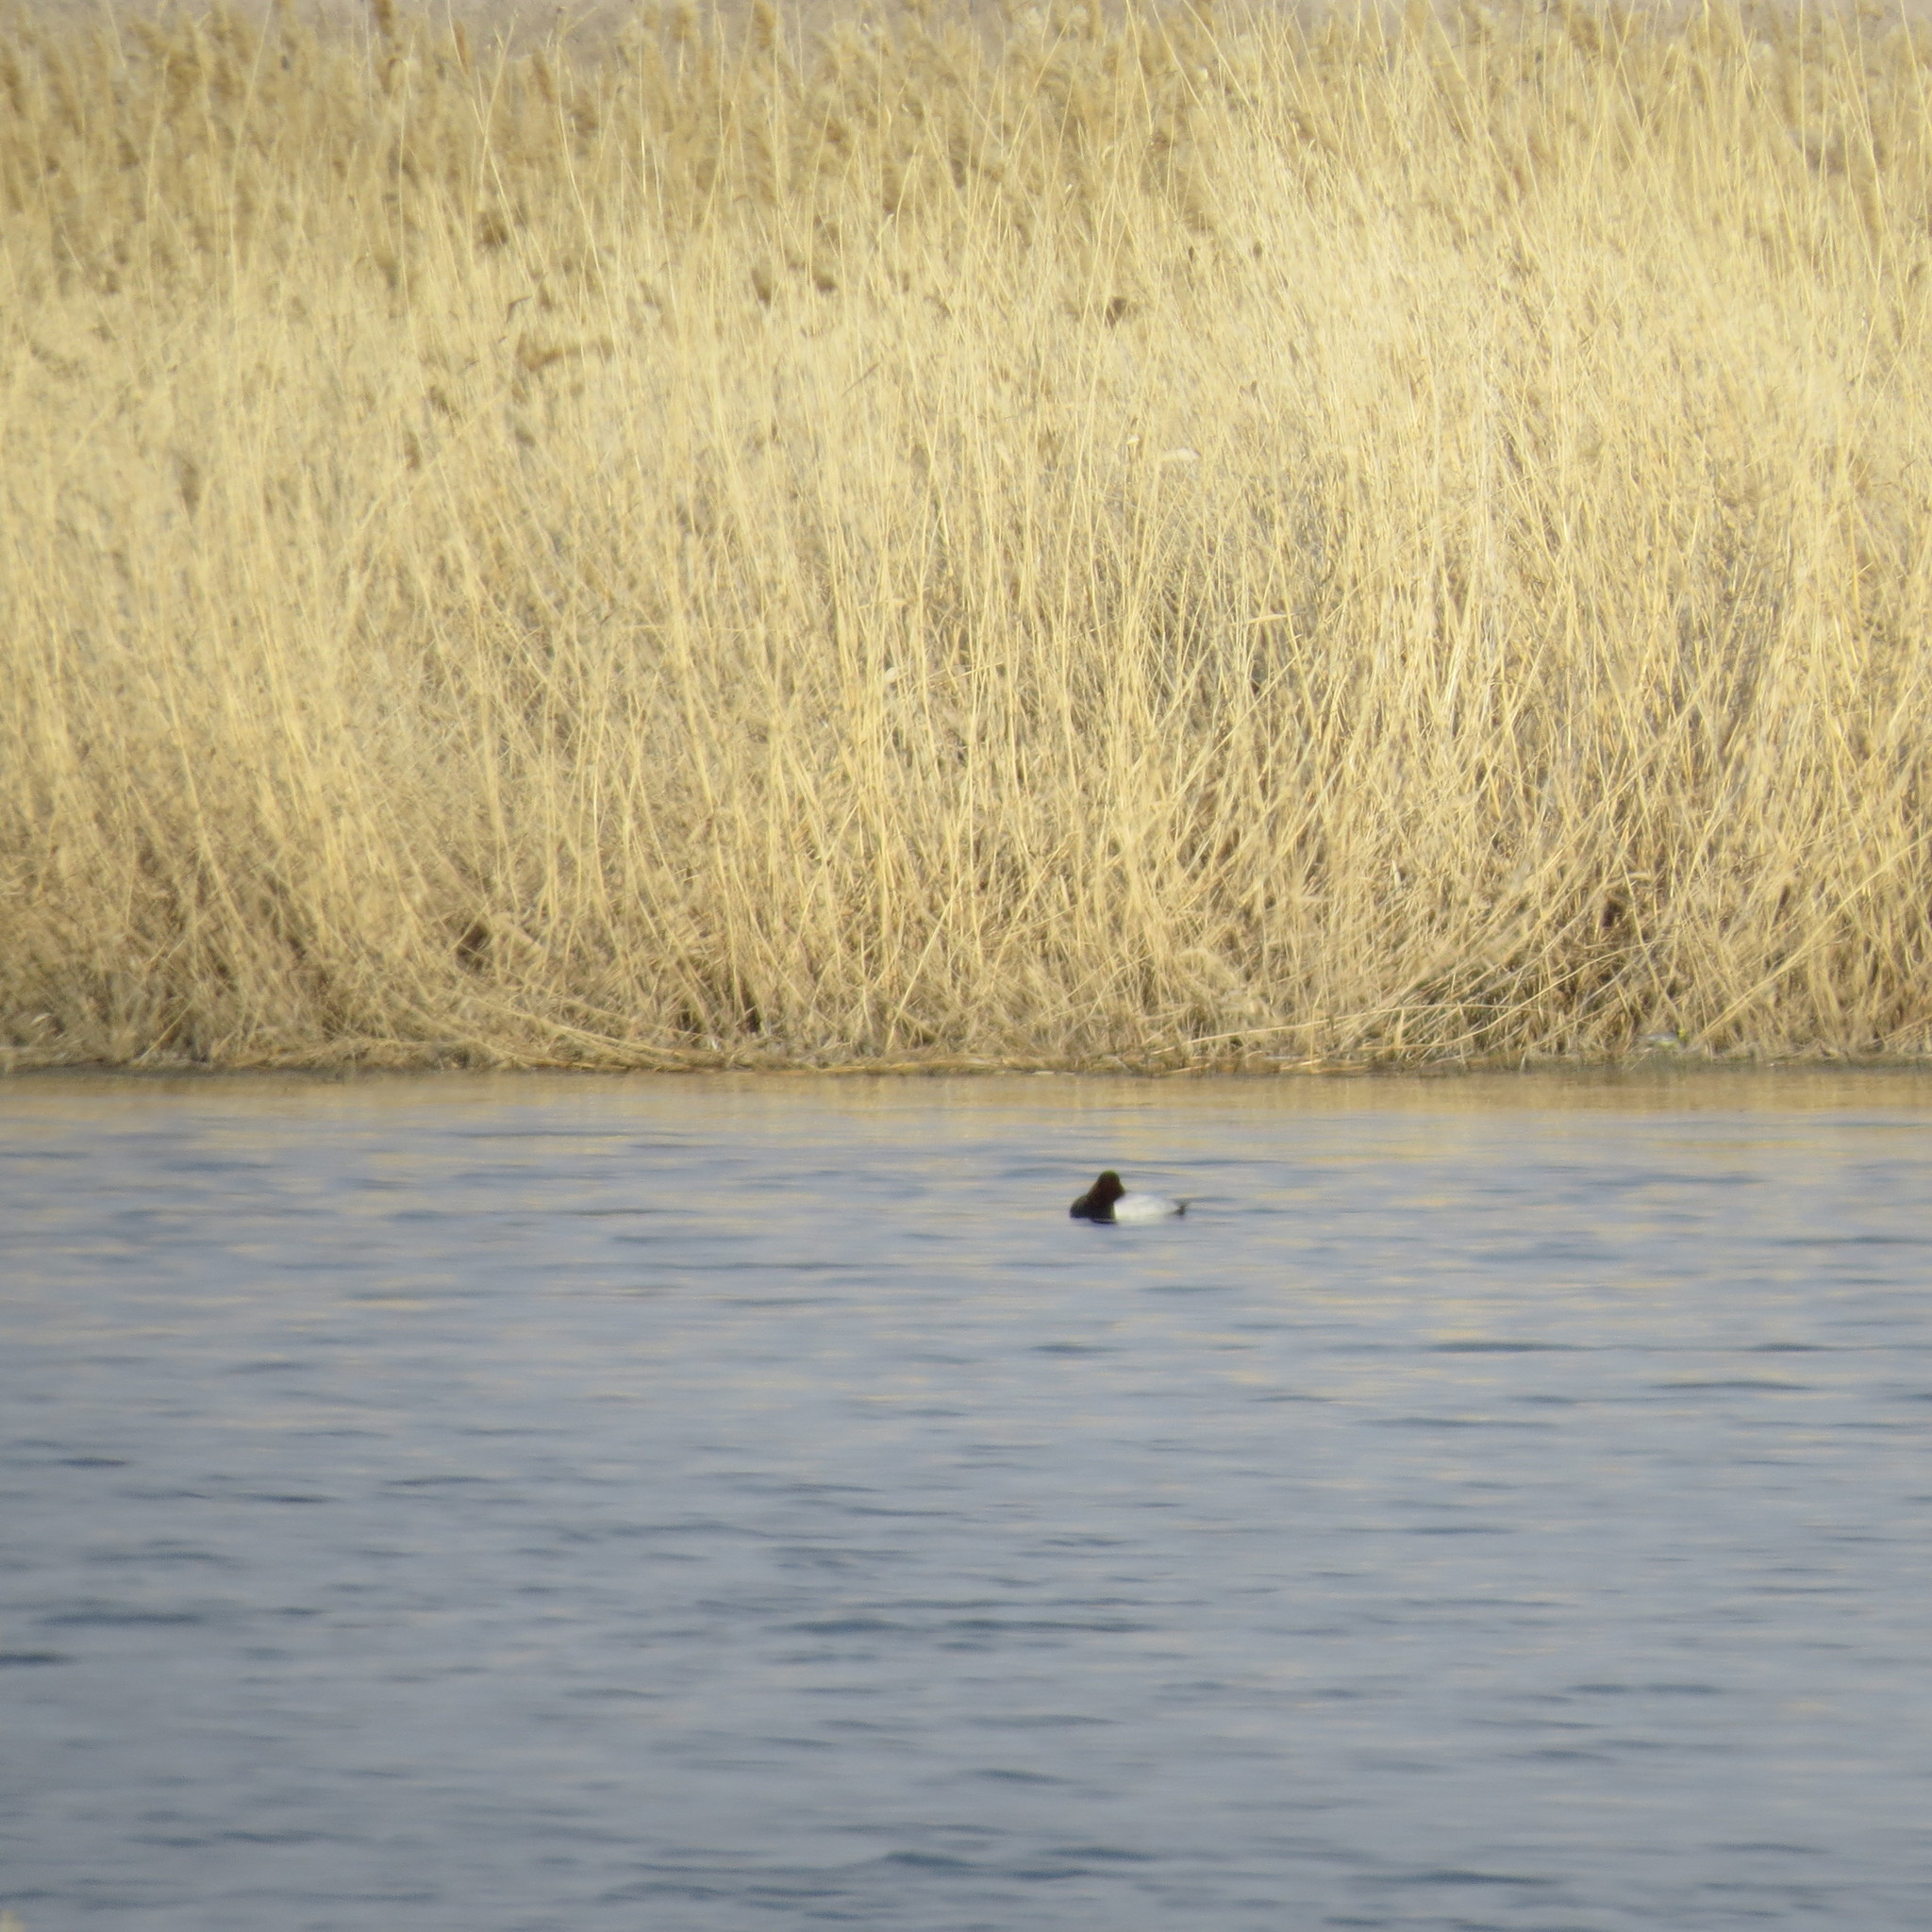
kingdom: Animalia
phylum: Chordata
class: Aves
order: Anseriformes
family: Anatidae
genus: Aythya
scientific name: Aythya fuligula
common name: Tufted duck
